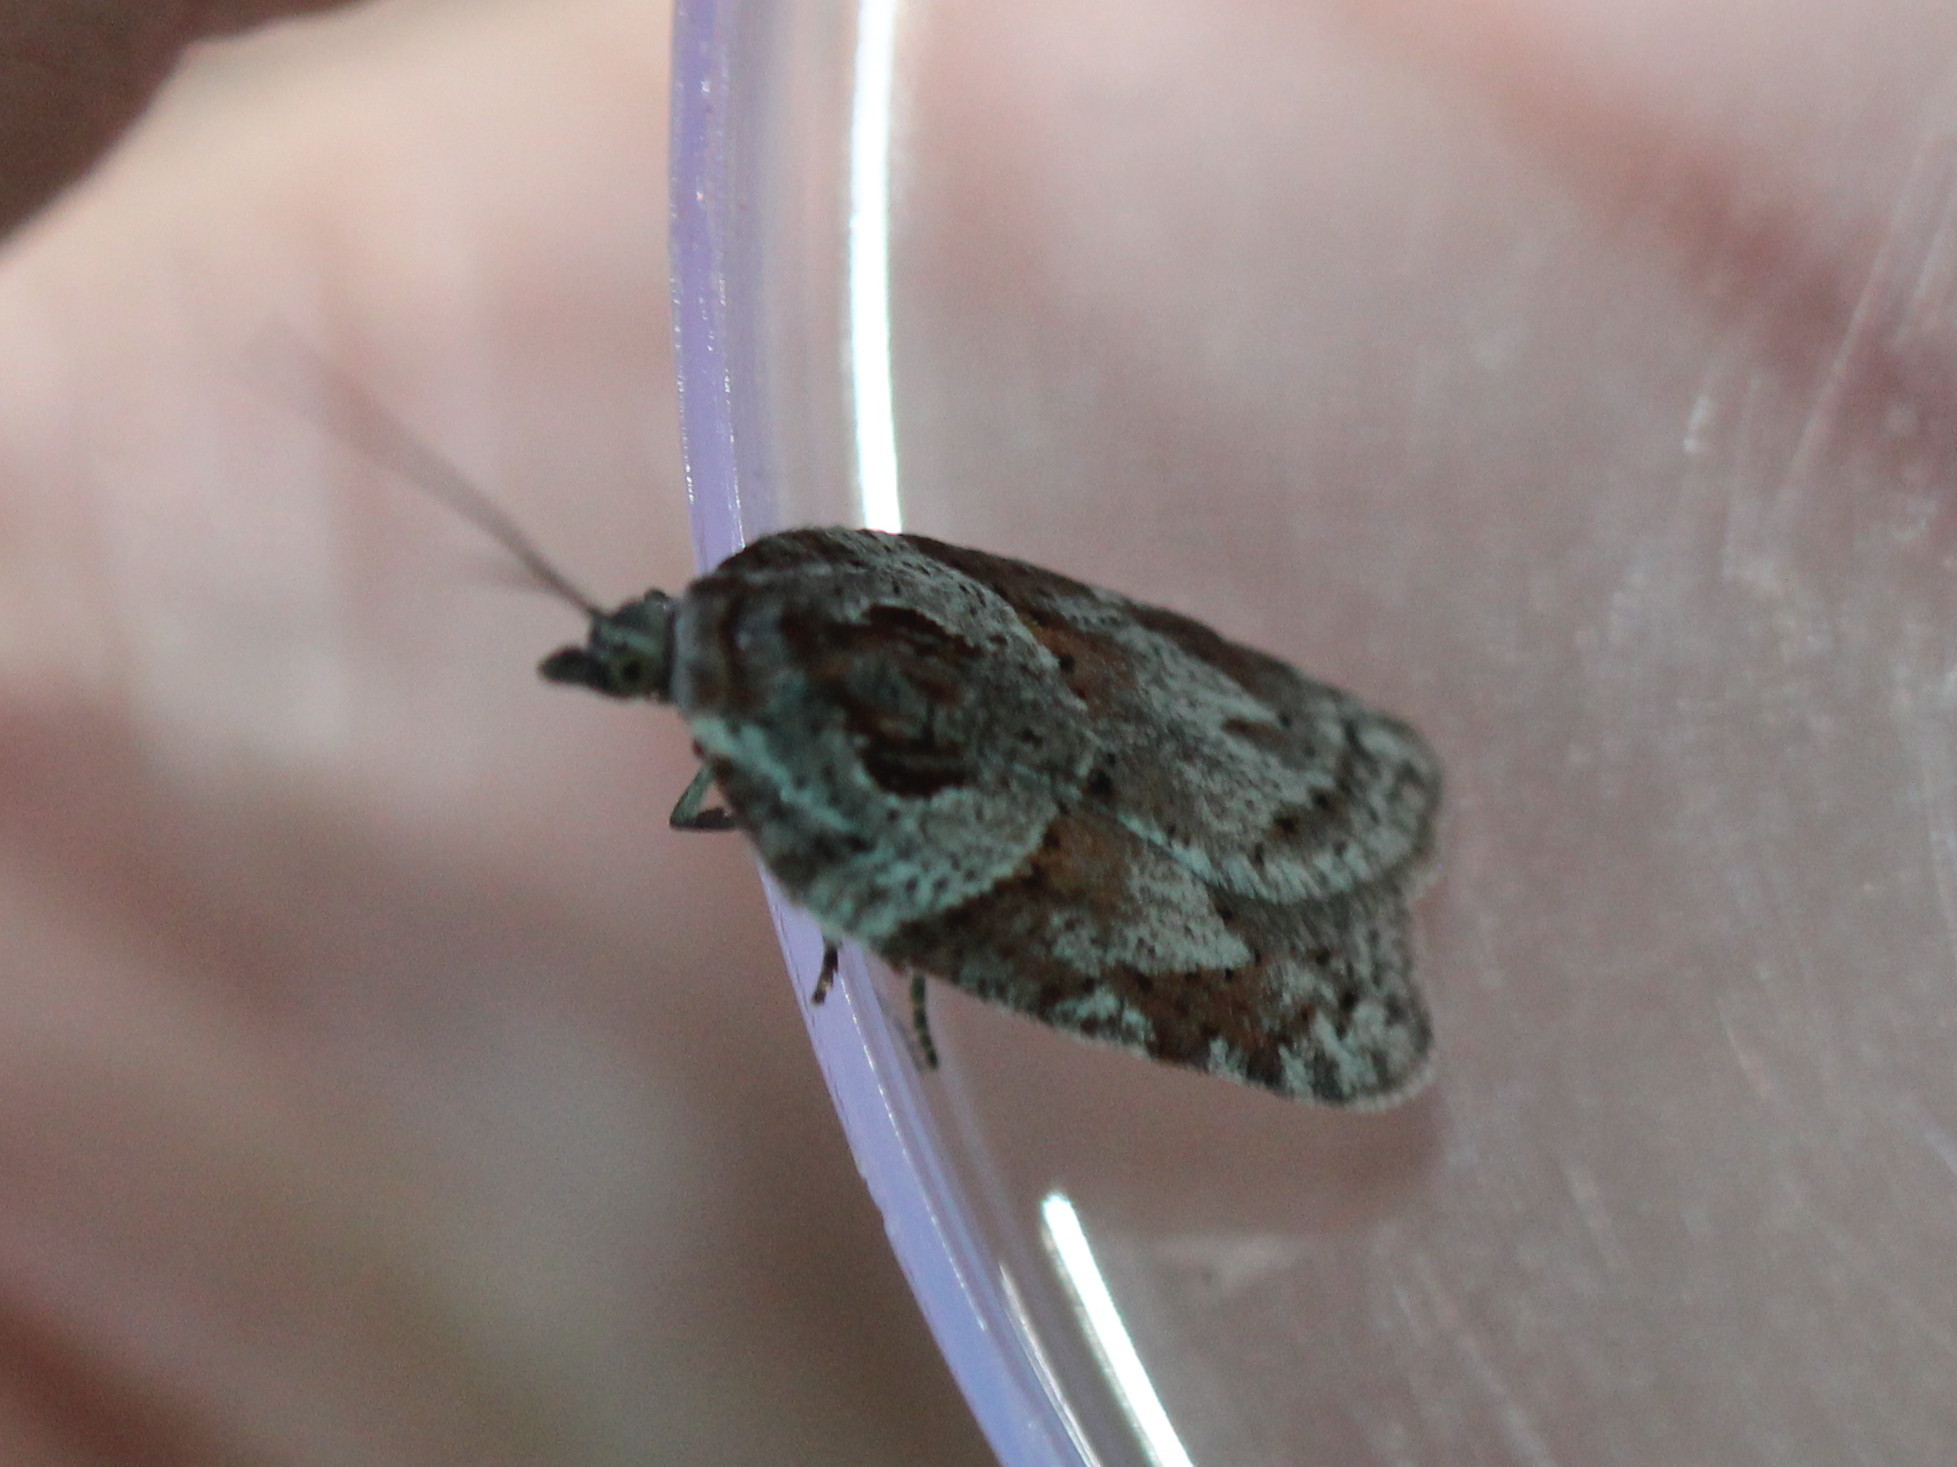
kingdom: Animalia
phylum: Arthropoda
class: Insecta
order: Lepidoptera
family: Tortricidae
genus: Acleris
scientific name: Acleris maculidorsana
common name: Stained-back leafroller moth
